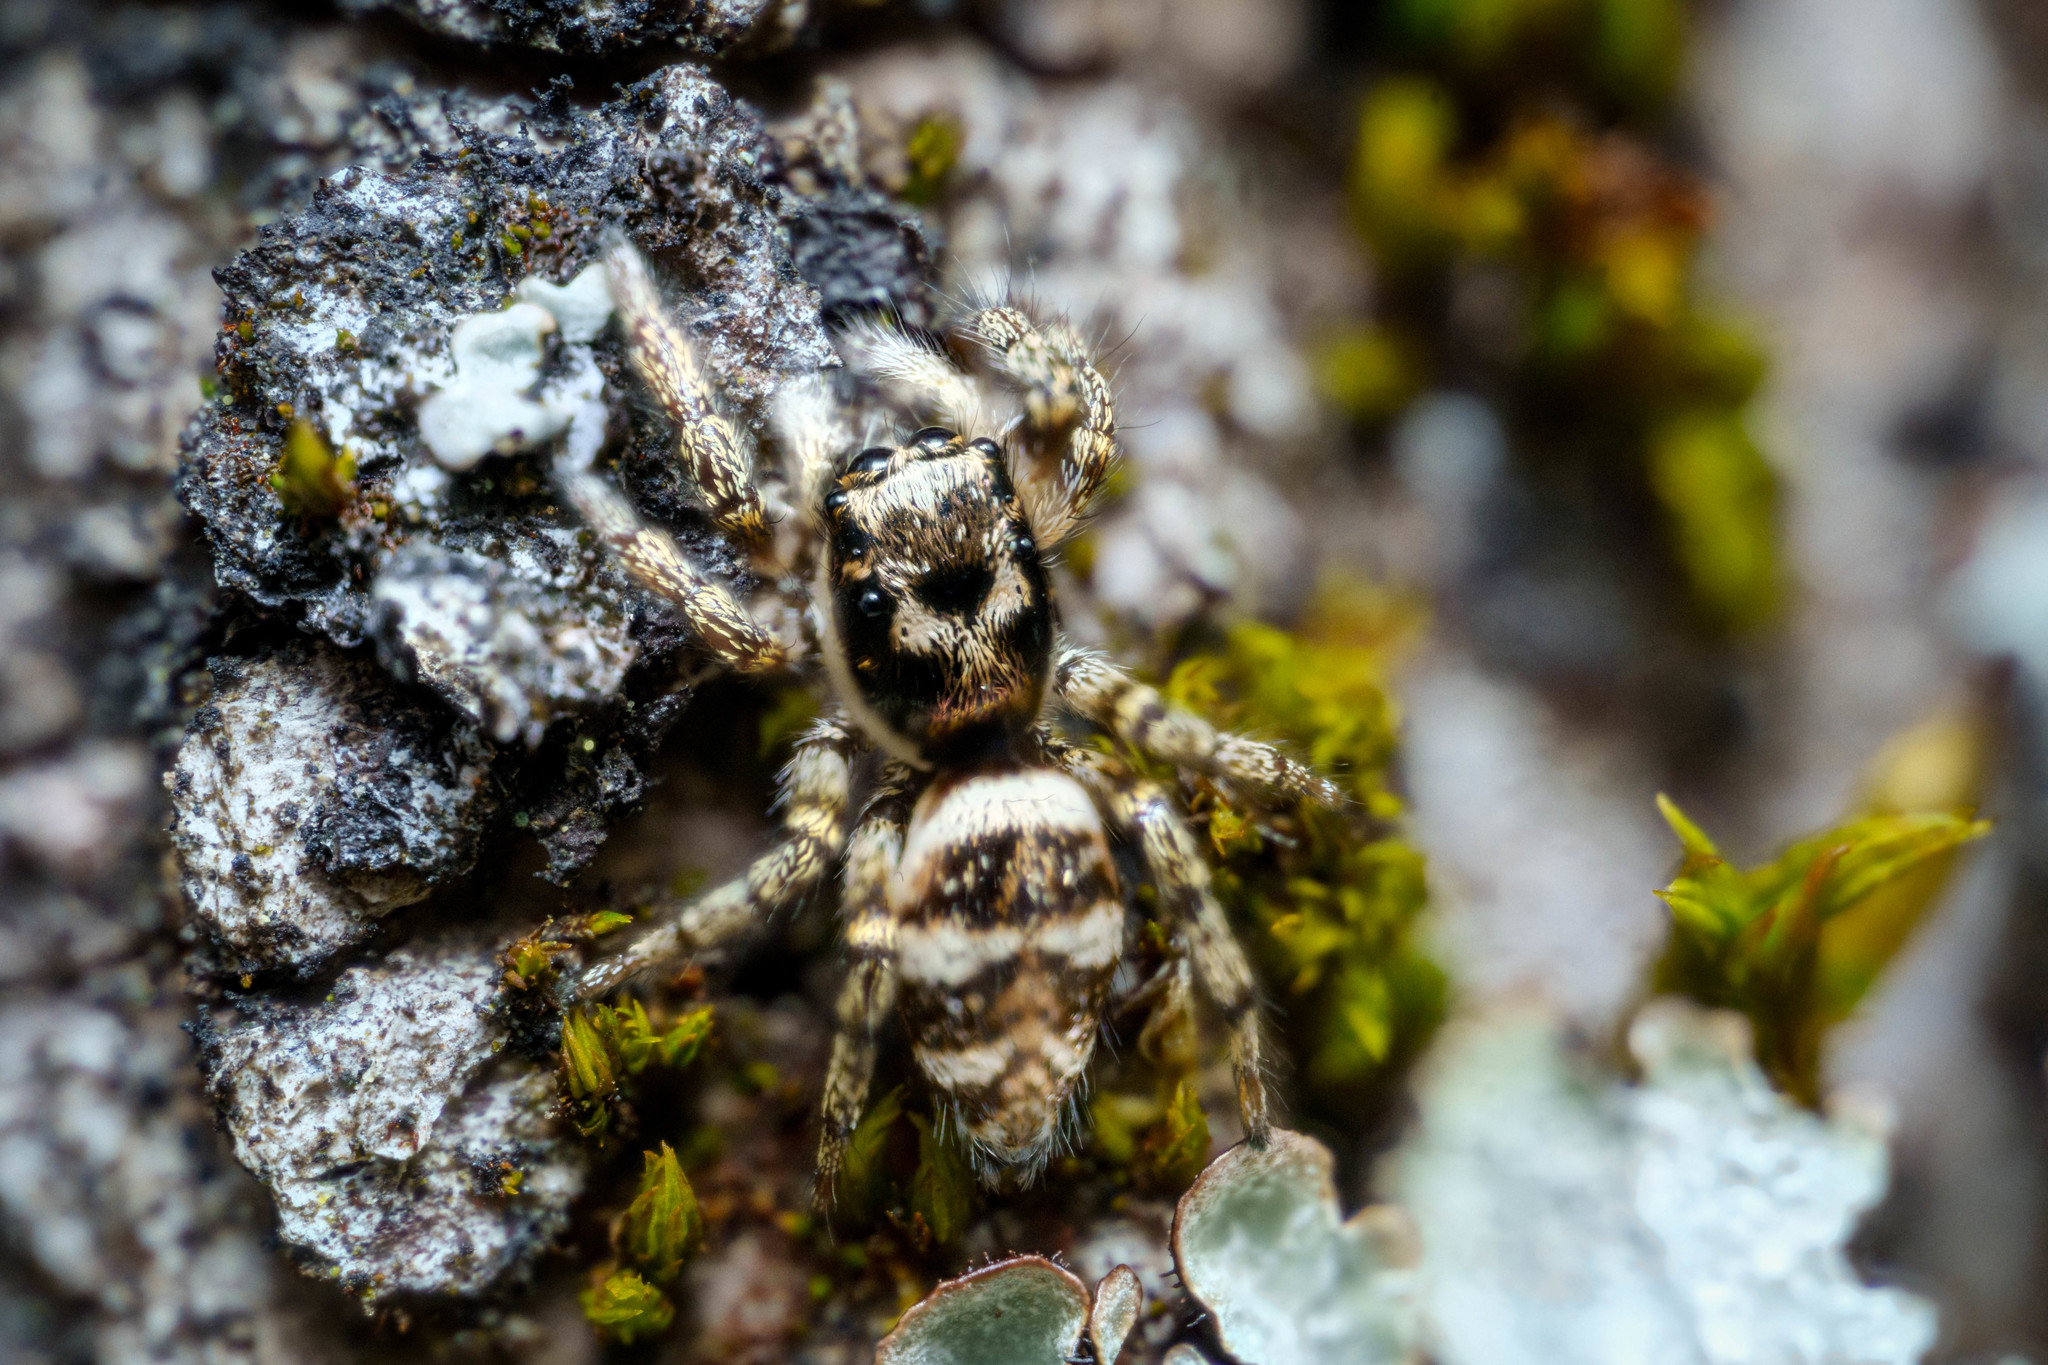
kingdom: Animalia
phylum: Arthropoda
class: Arachnida
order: Araneae
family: Salticidae
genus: Salticus
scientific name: Salticus scenicus
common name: Zebra jumper
